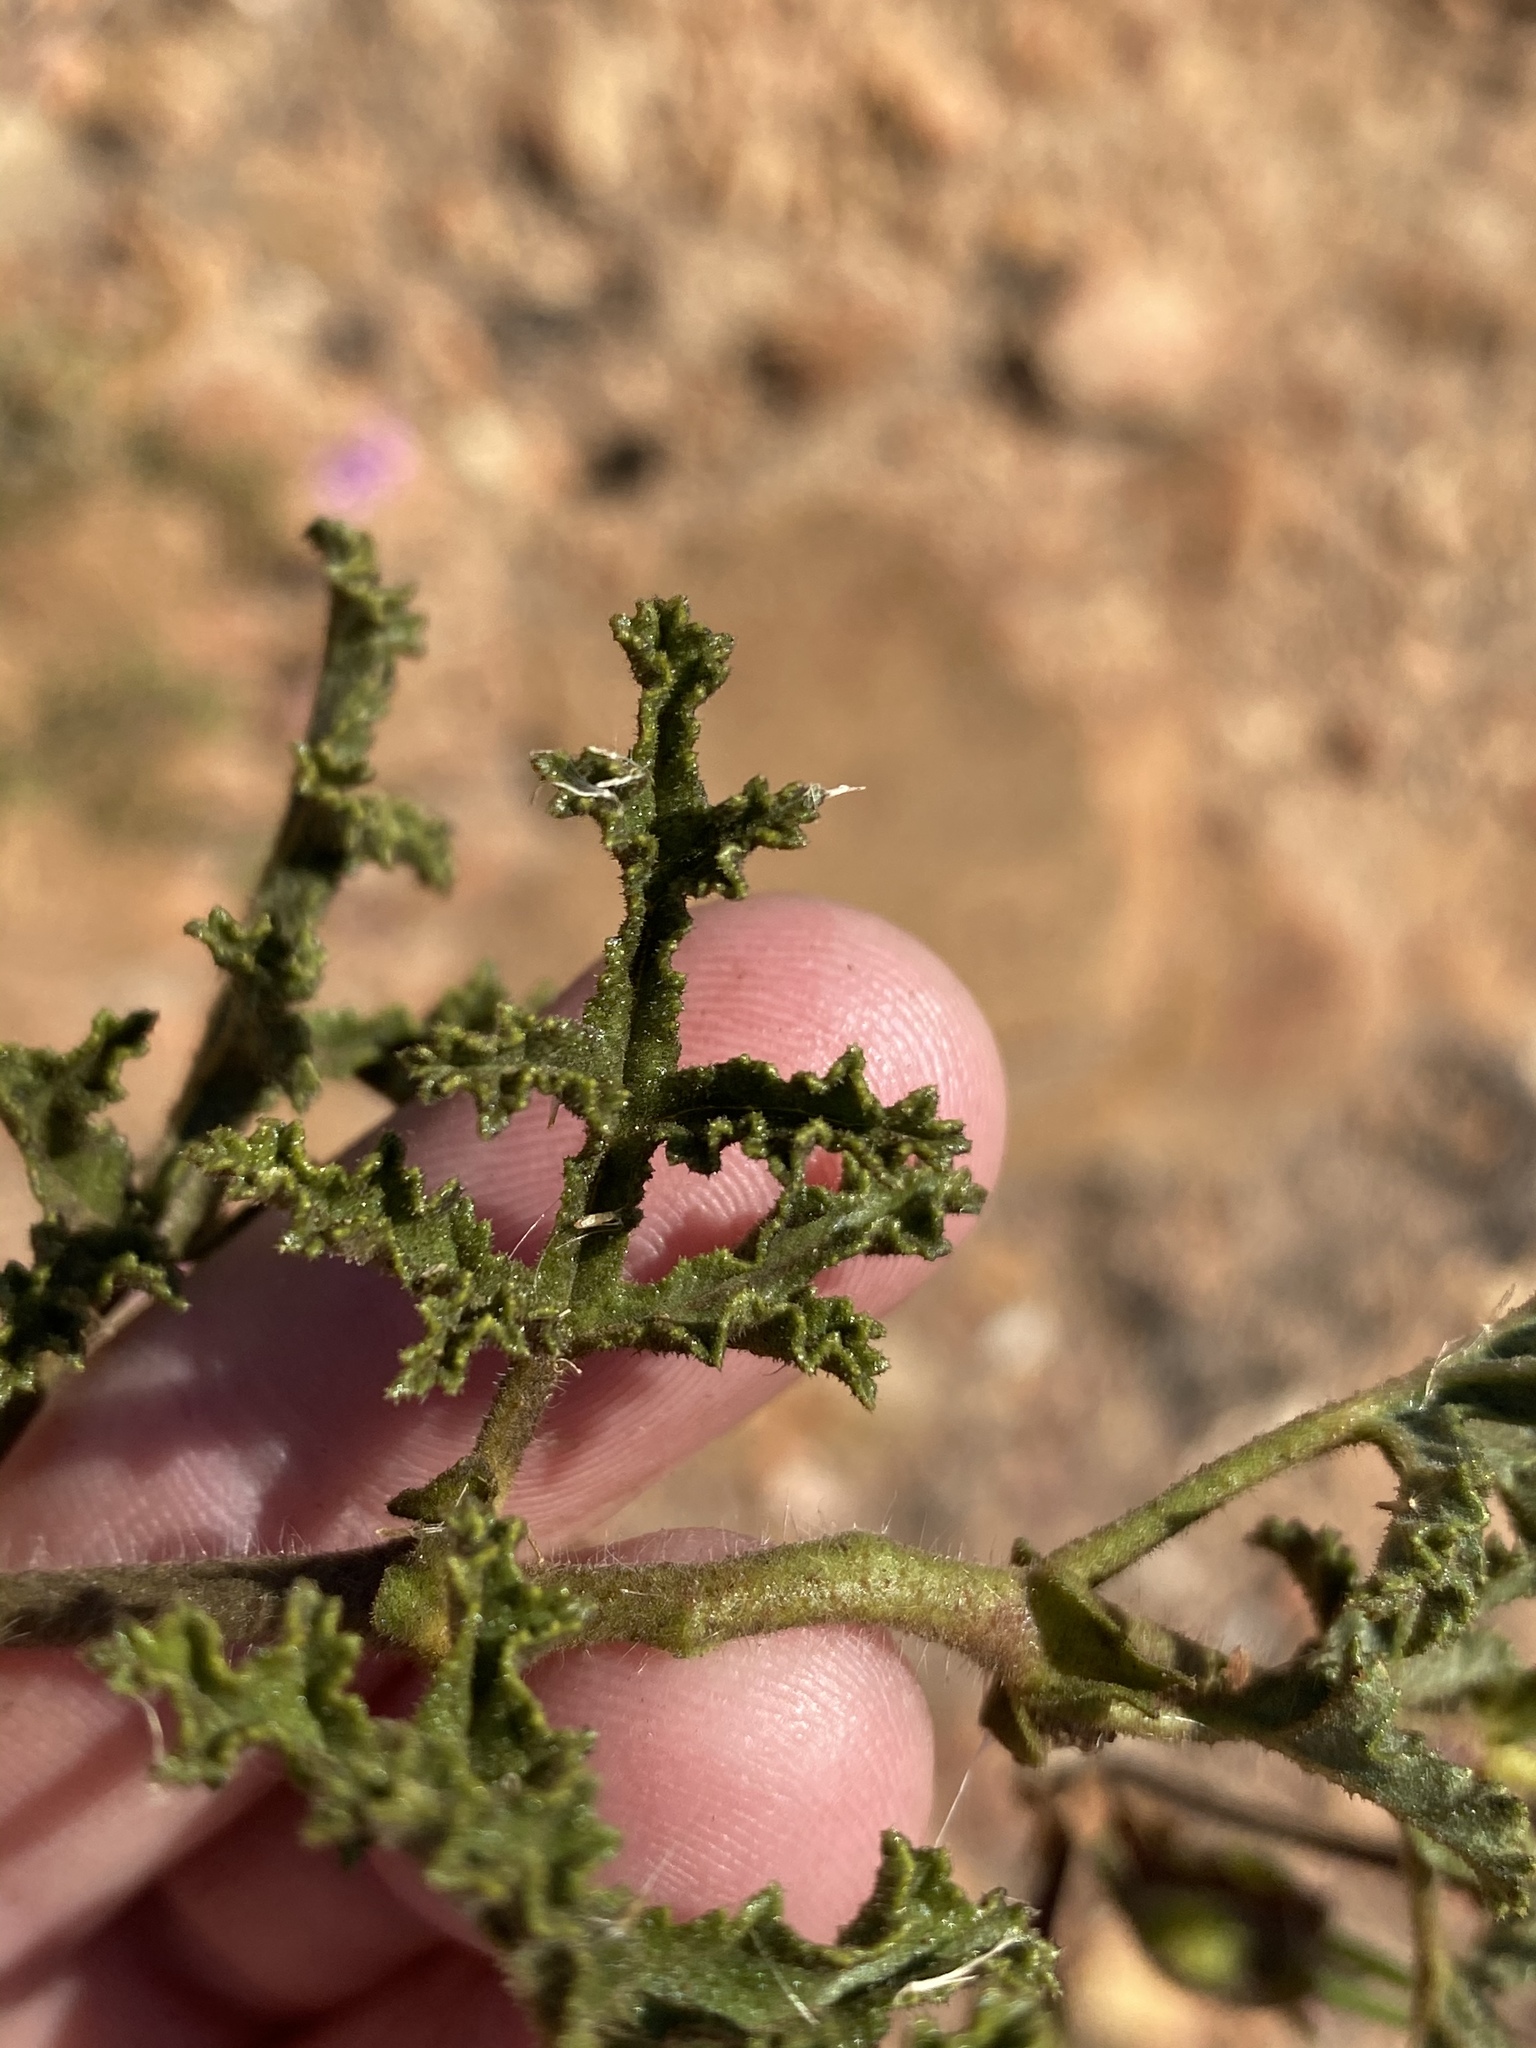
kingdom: Plantae
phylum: Tracheophyta
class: Magnoliopsida
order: Geraniales
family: Geraniaceae
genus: Pelargonium
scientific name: Pelargonium denticulatum
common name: Pine geranium
